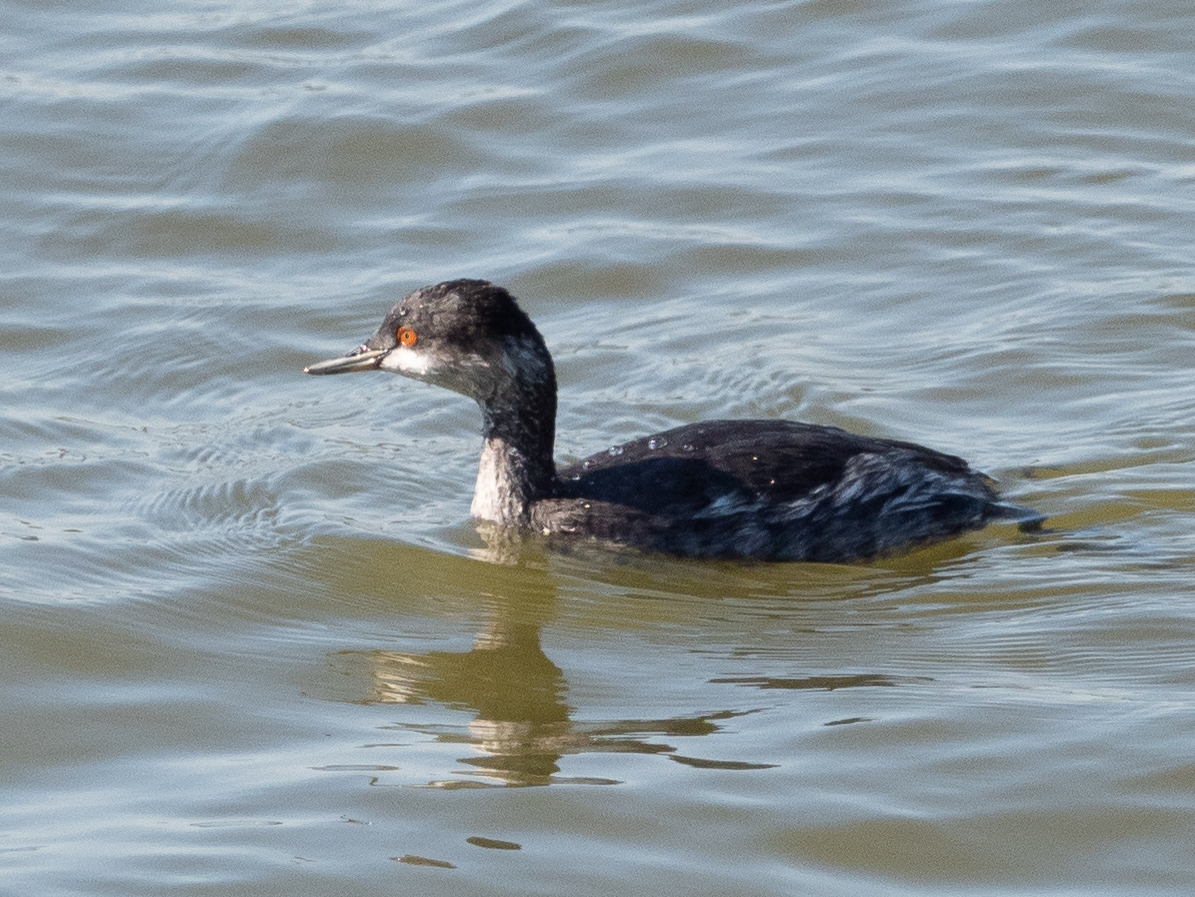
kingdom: Animalia
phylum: Chordata
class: Aves
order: Podicipediformes
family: Podicipedidae
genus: Podiceps
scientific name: Podiceps nigricollis
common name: Black-necked grebe
